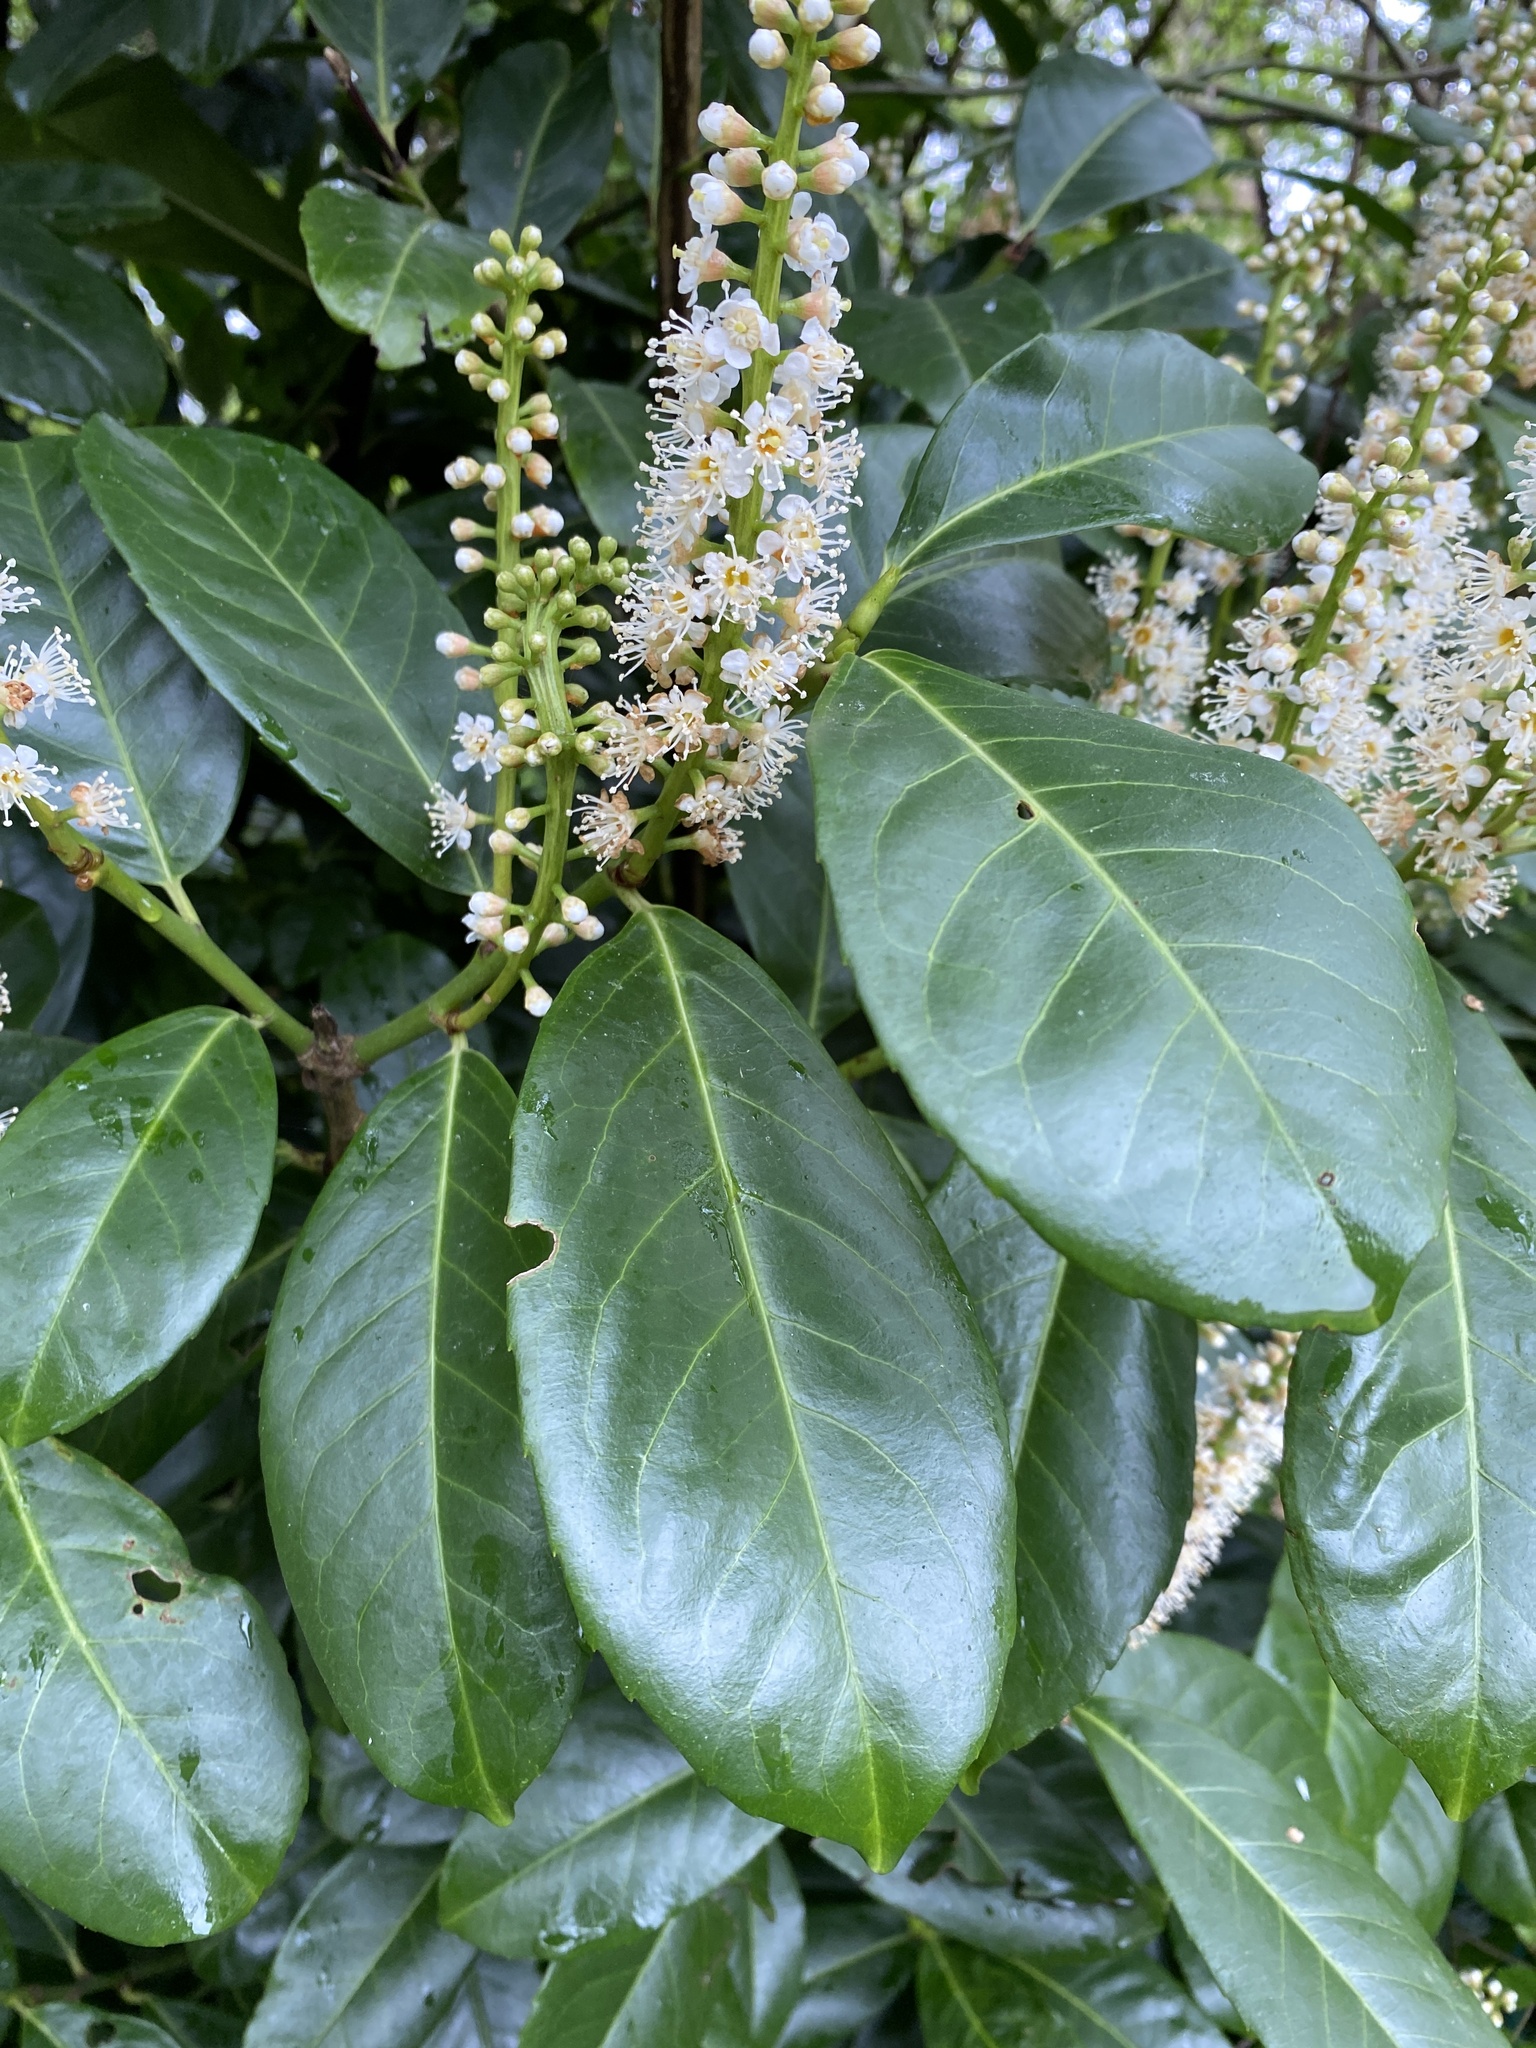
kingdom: Plantae
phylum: Tracheophyta
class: Magnoliopsida
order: Rosales
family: Rosaceae
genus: Prunus
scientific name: Prunus laurocerasus
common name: Cherry laurel
